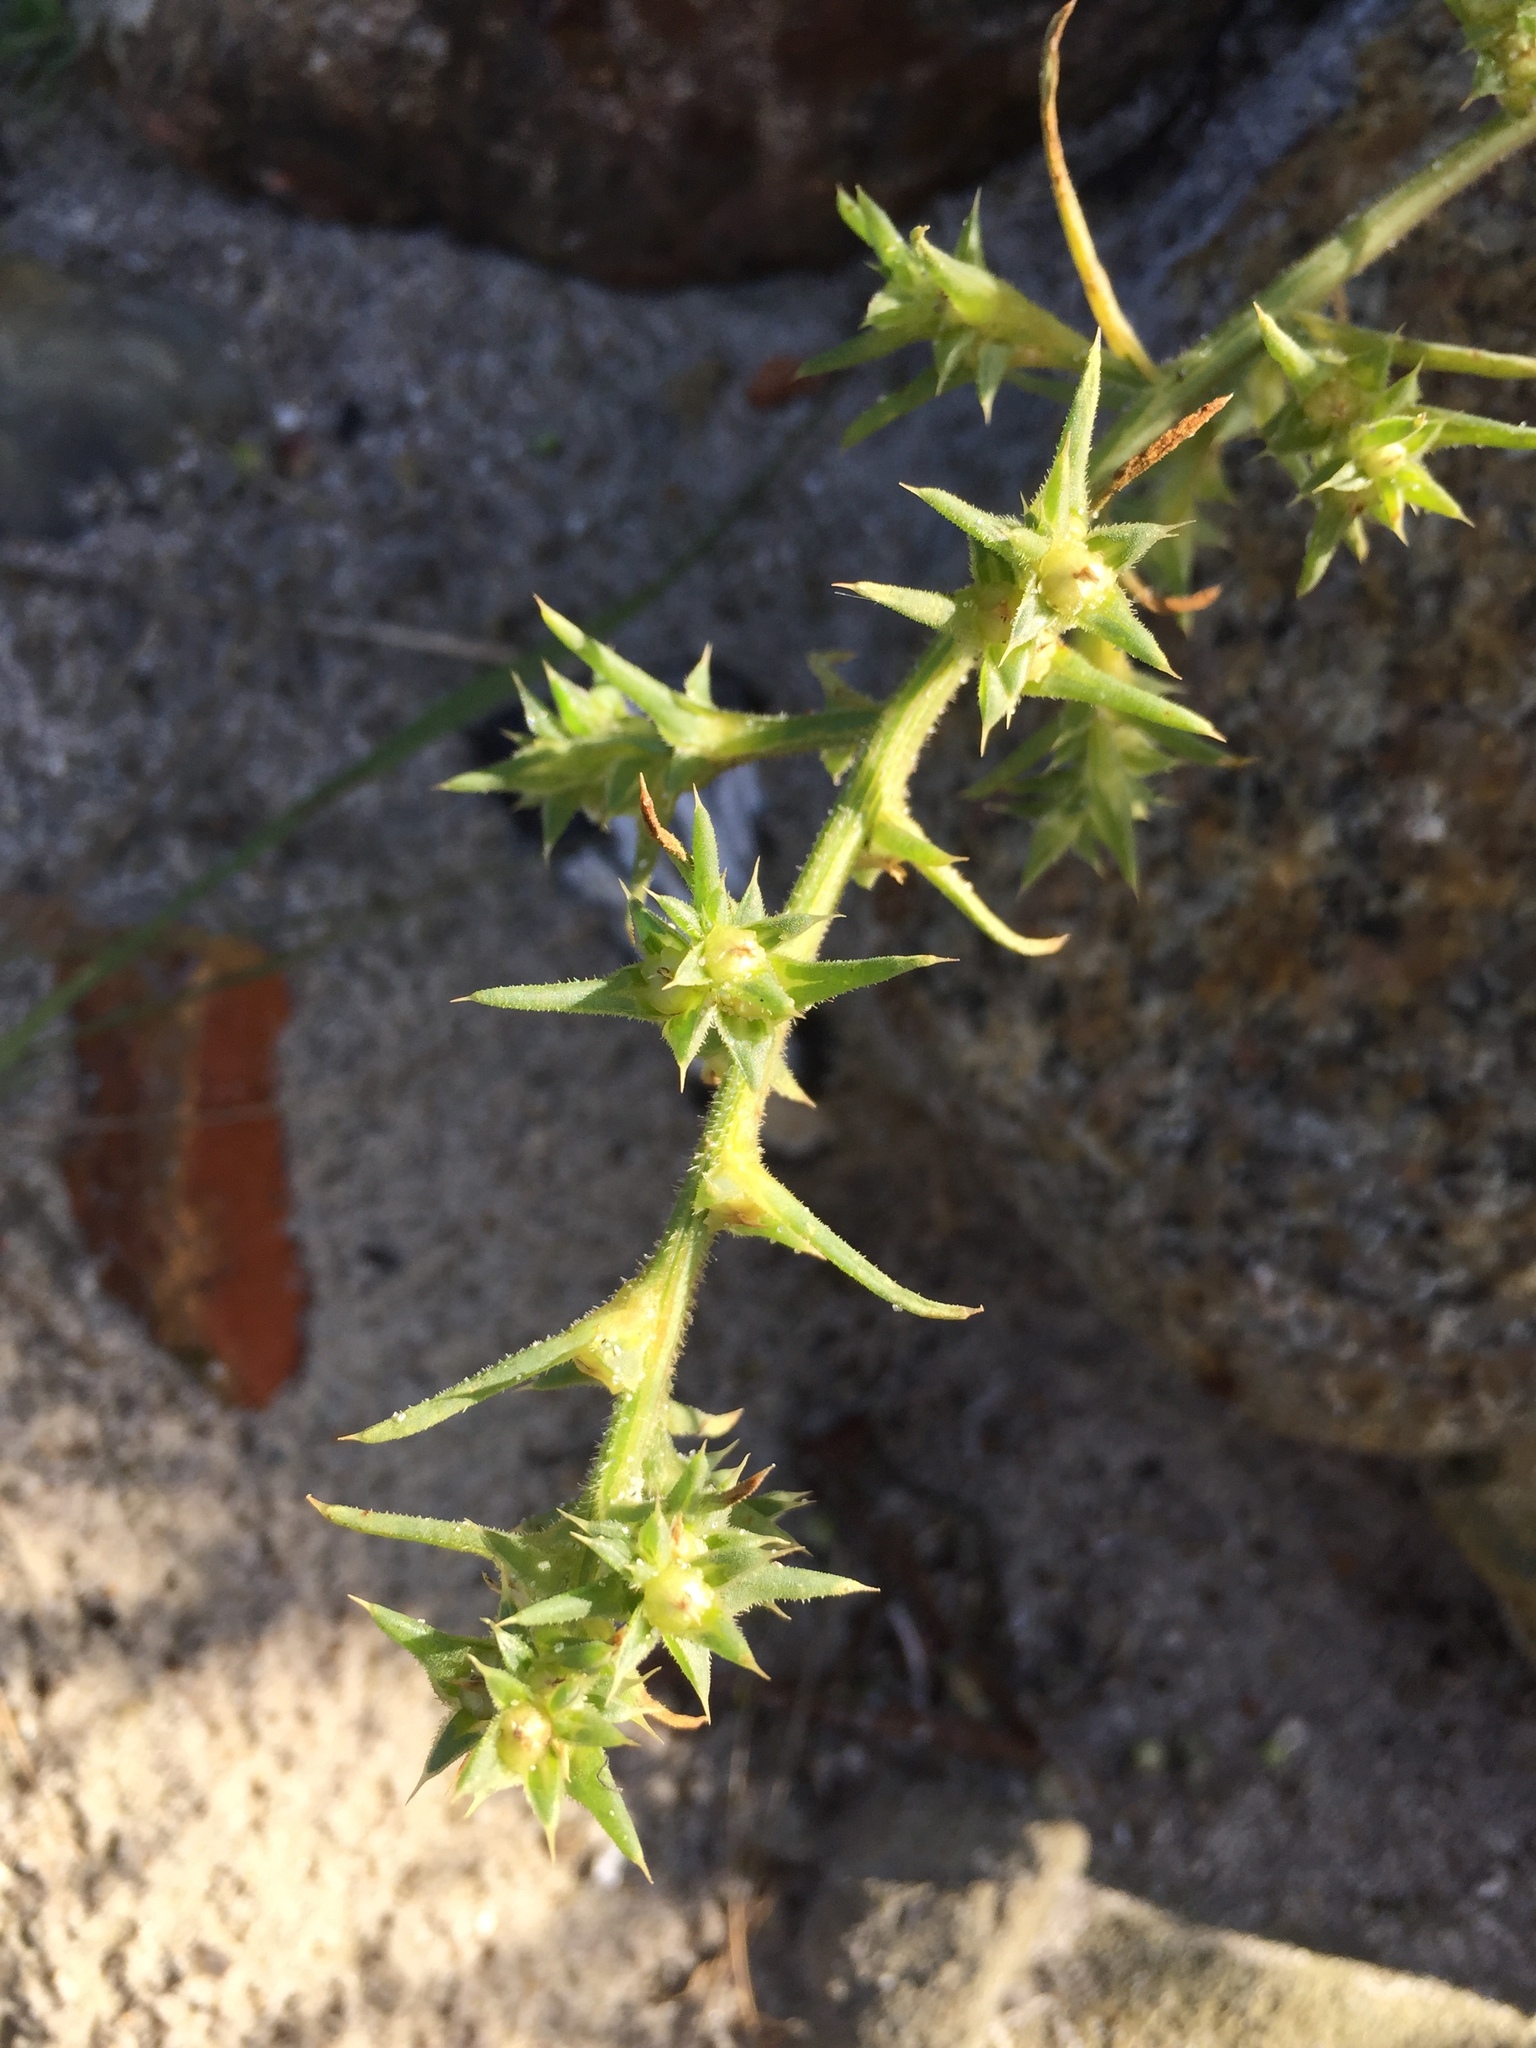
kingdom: Plantae
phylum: Tracheophyta
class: Magnoliopsida
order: Caryophyllales
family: Amaranthaceae
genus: Salsola
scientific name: Salsola kali
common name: Saltwort
